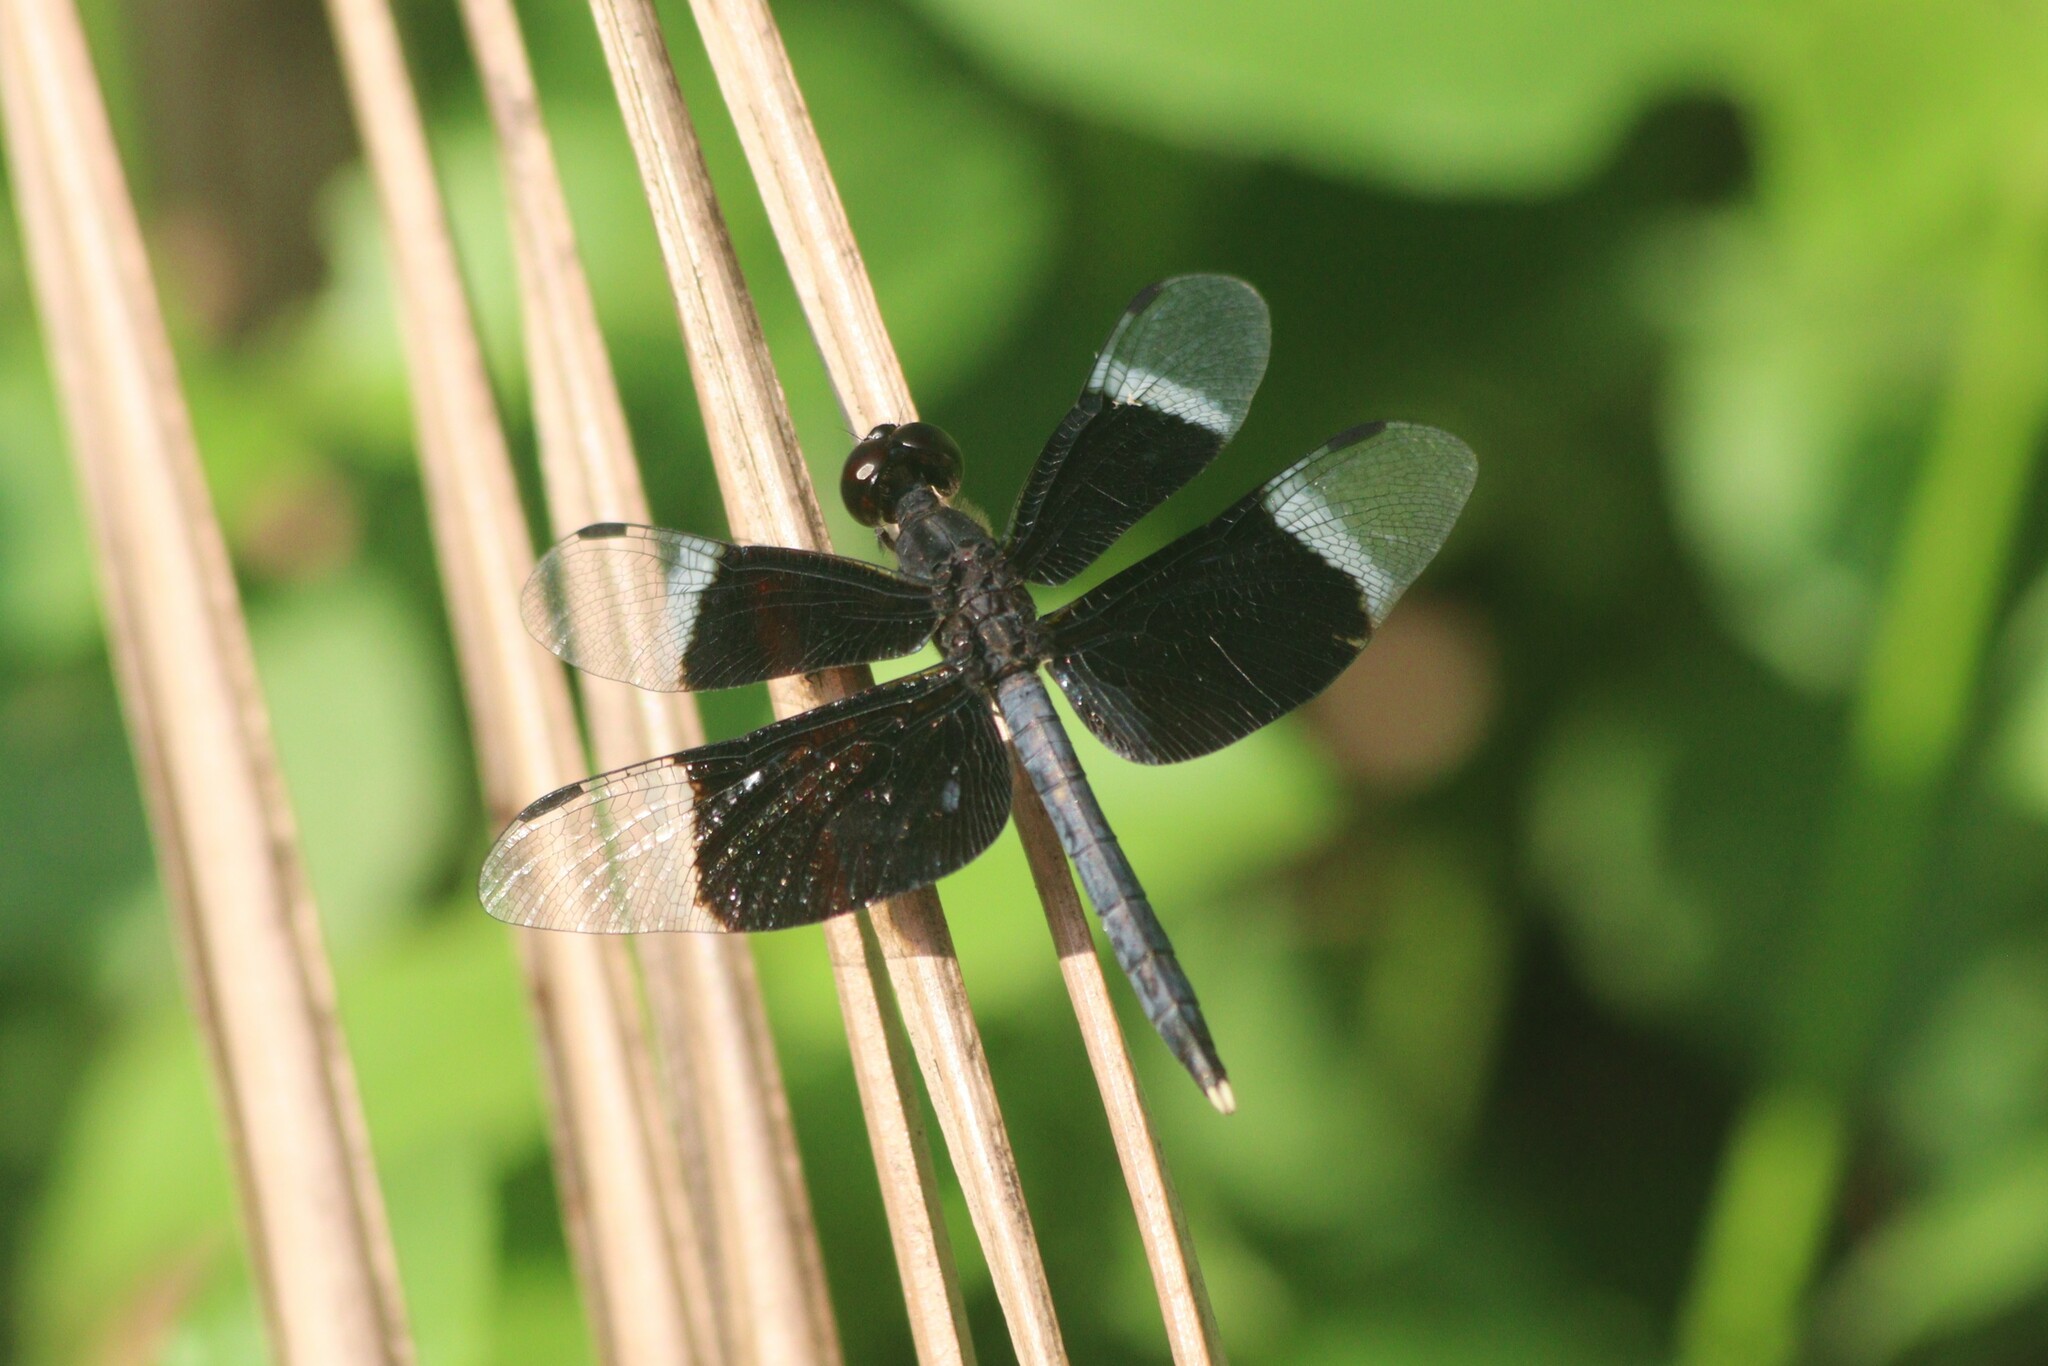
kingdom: Animalia
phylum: Arthropoda
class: Insecta
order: Odonata
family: Libellulidae
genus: Neurothemis
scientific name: Neurothemis tullia
